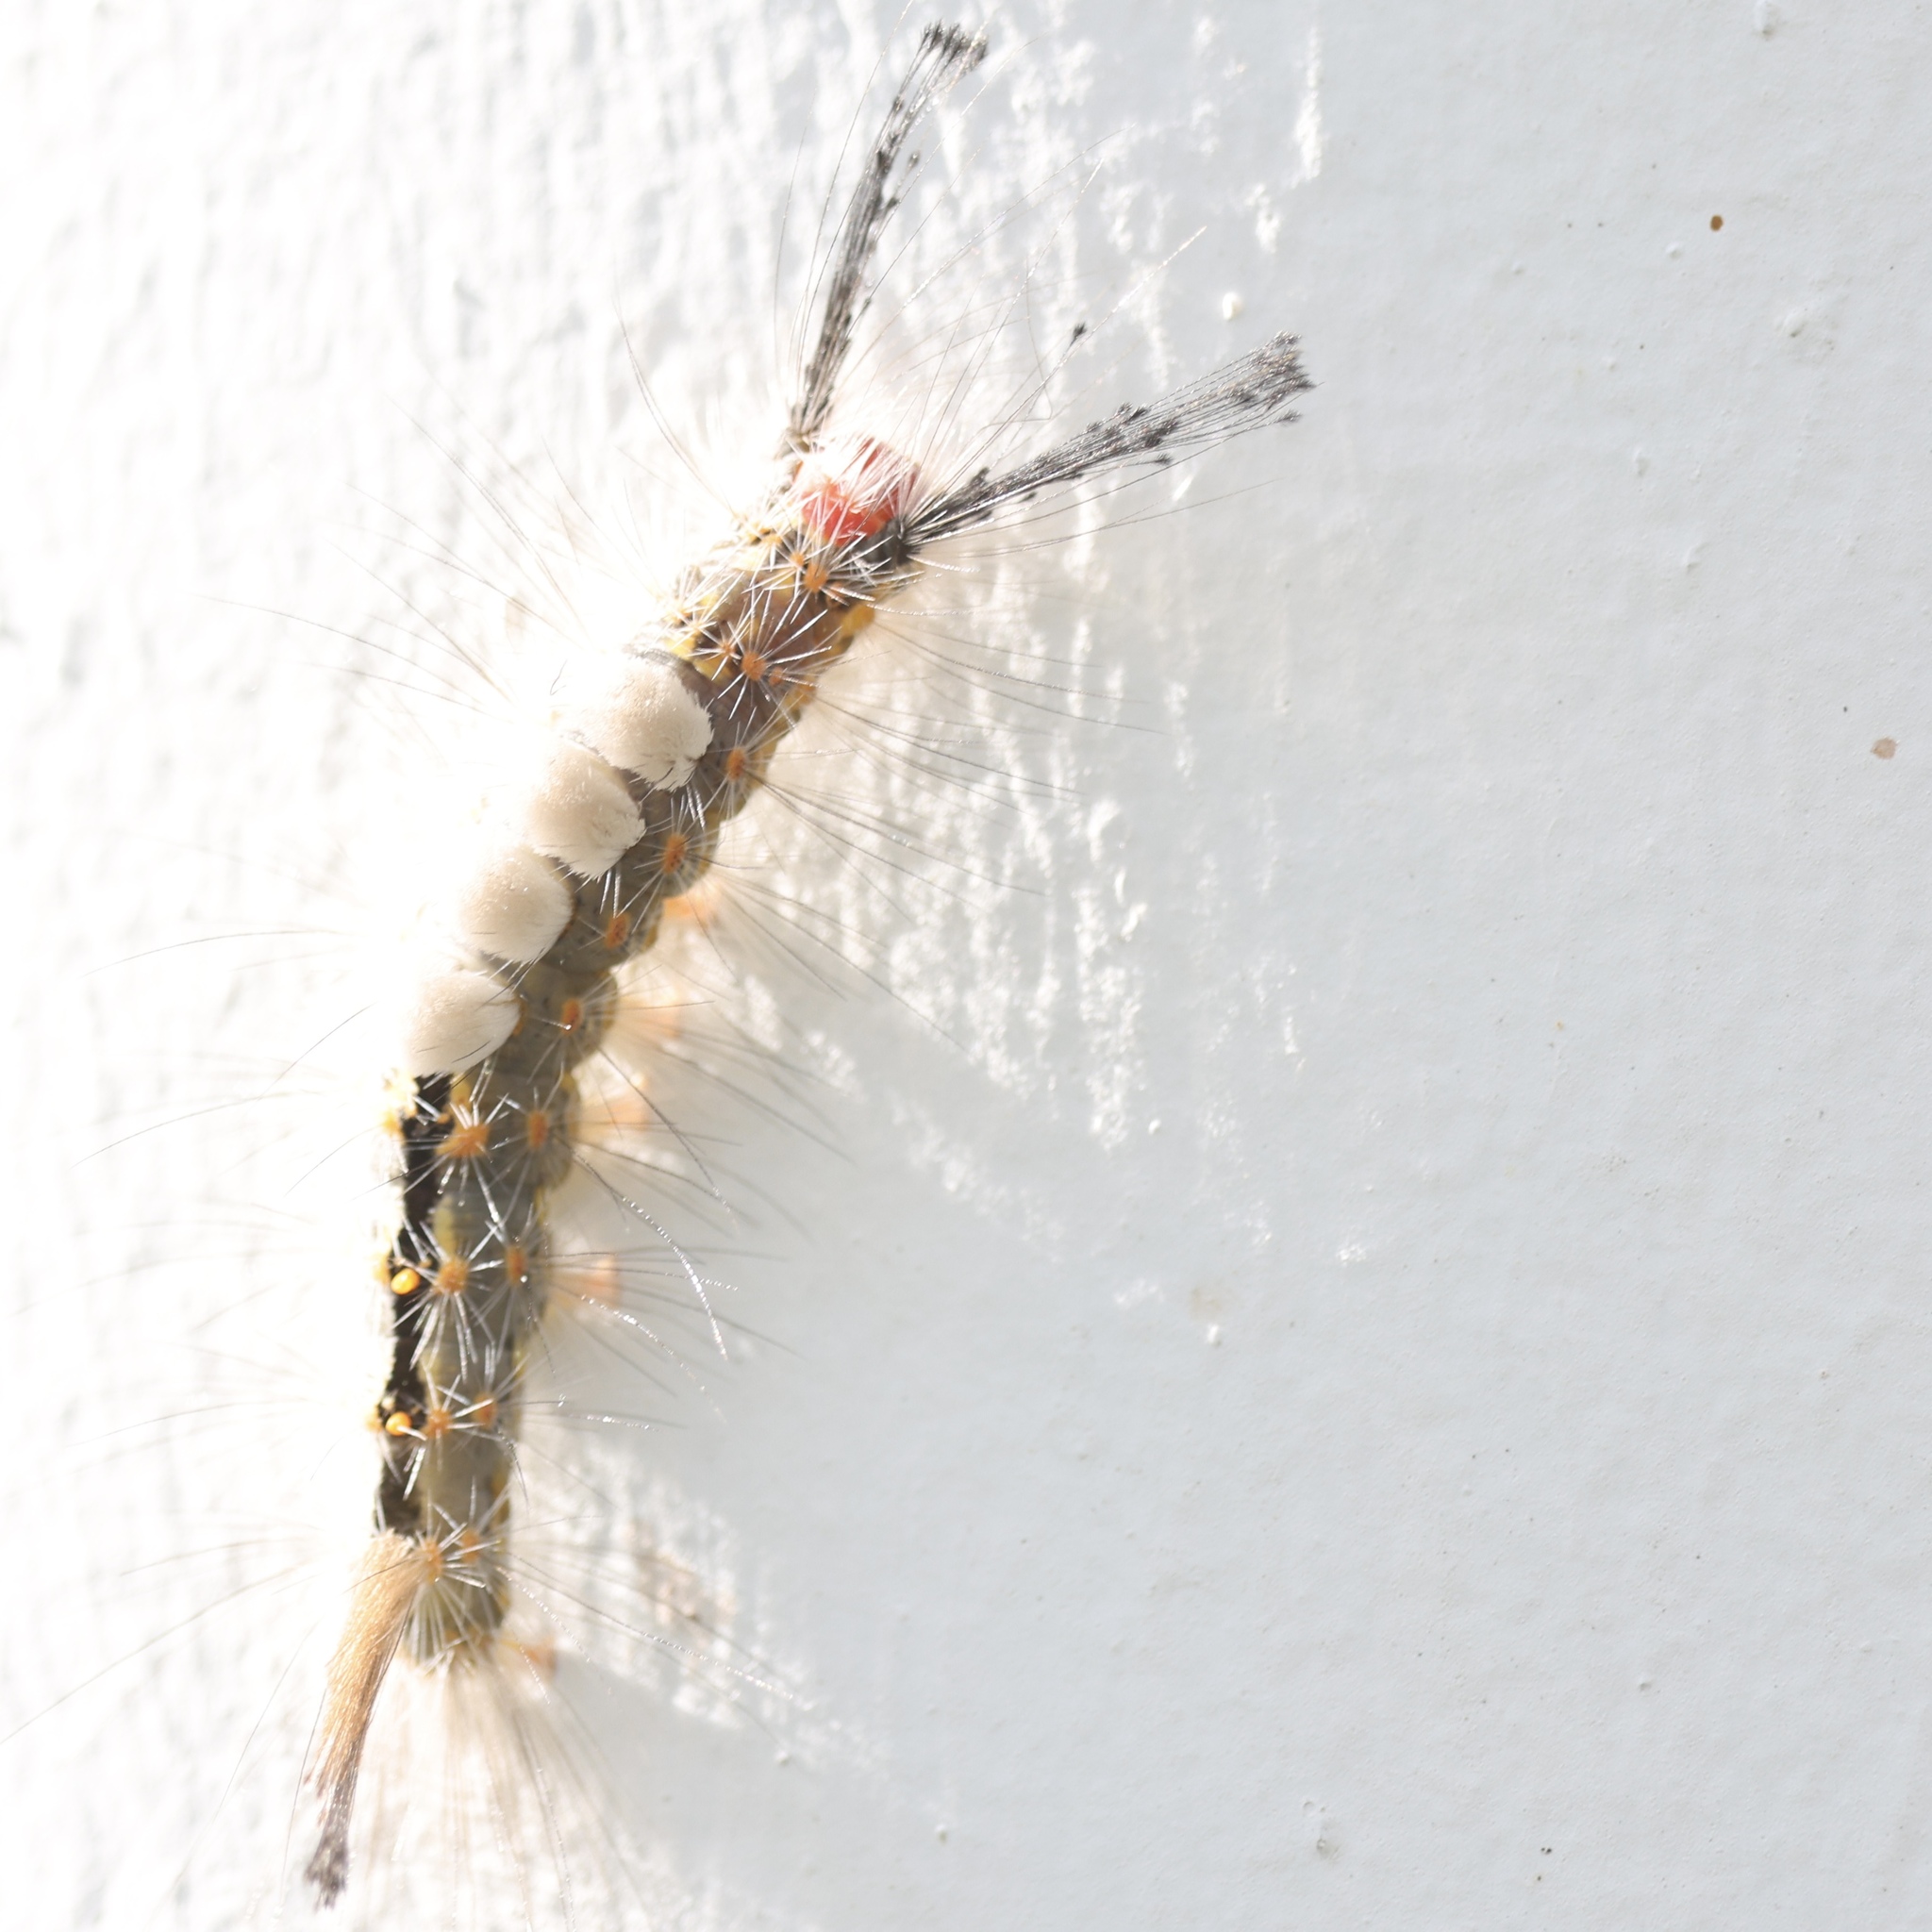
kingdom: Animalia
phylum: Arthropoda
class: Insecta
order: Lepidoptera
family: Erebidae
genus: Orgyia
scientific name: Orgyia detrita
